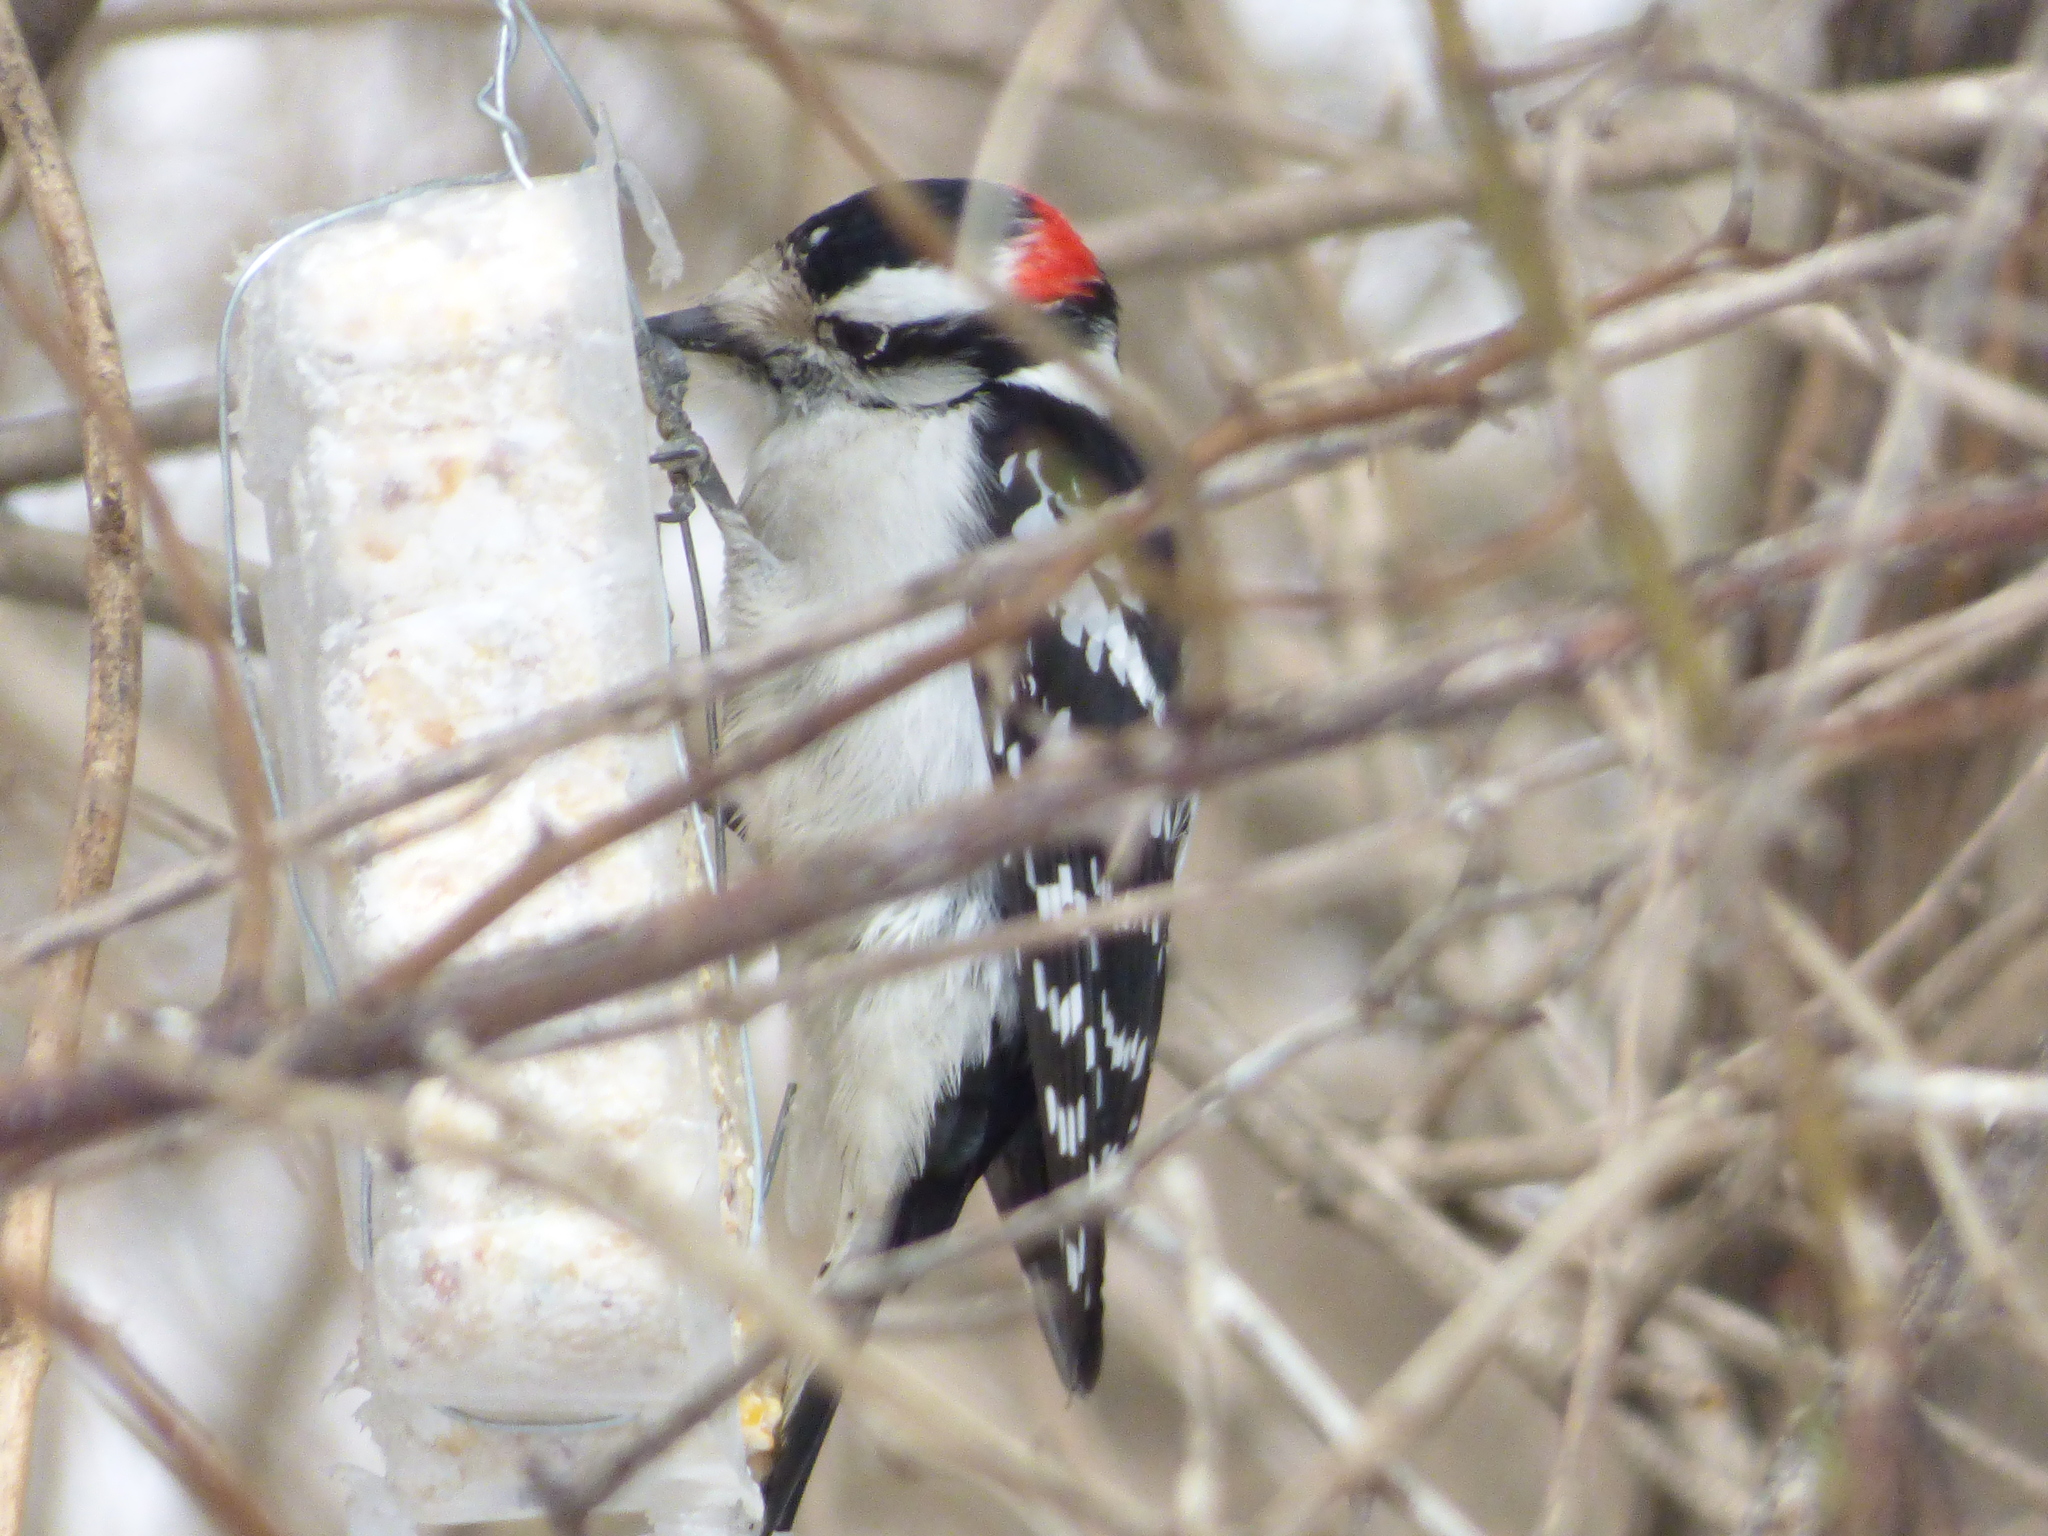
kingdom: Animalia
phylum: Chordata
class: Aves
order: Piciformes
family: Picidae
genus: Dryobates
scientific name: Dryobates pubescens
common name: Downy woodpecker
